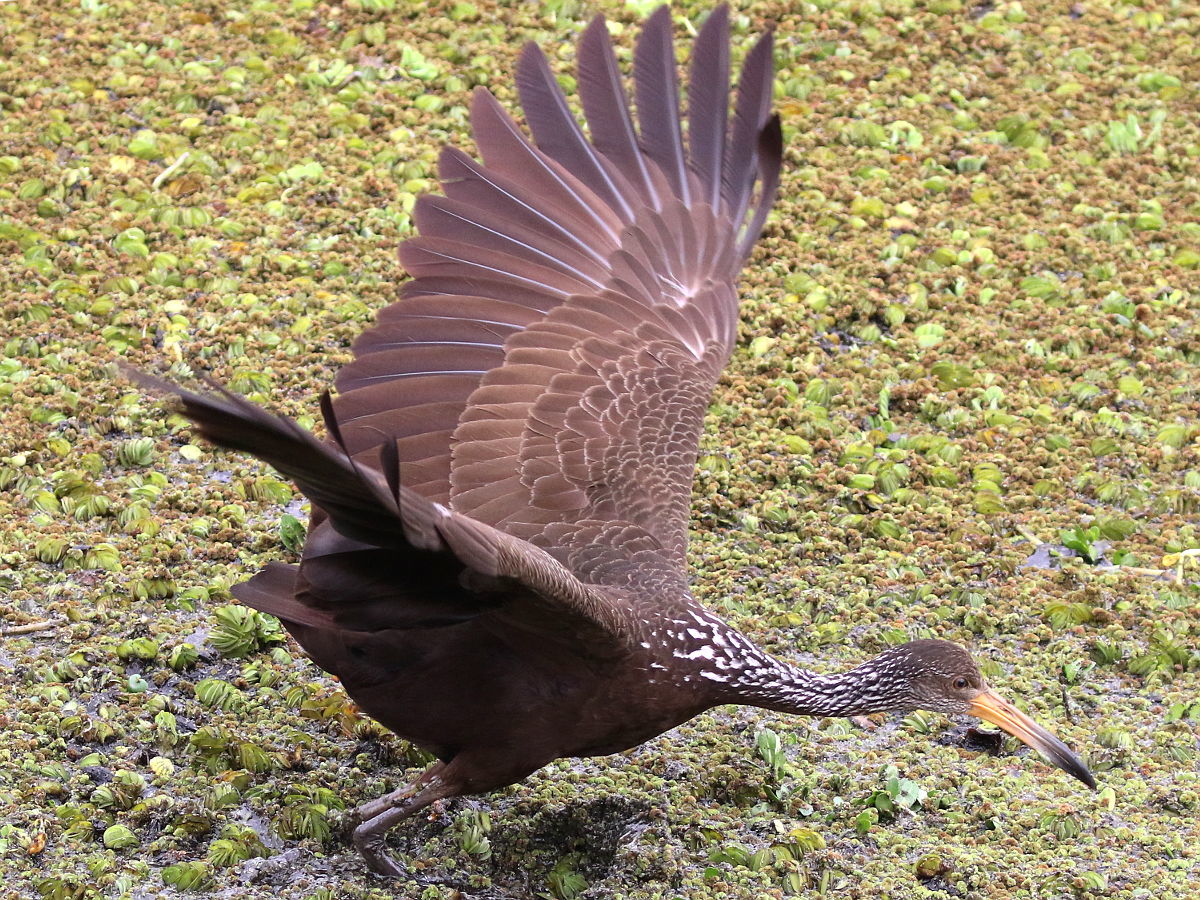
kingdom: Animalia
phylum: Chordata
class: Aves
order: Gruiformes
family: Aramidae
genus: Aramus
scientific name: Aramus guarauna
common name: Limpkin
